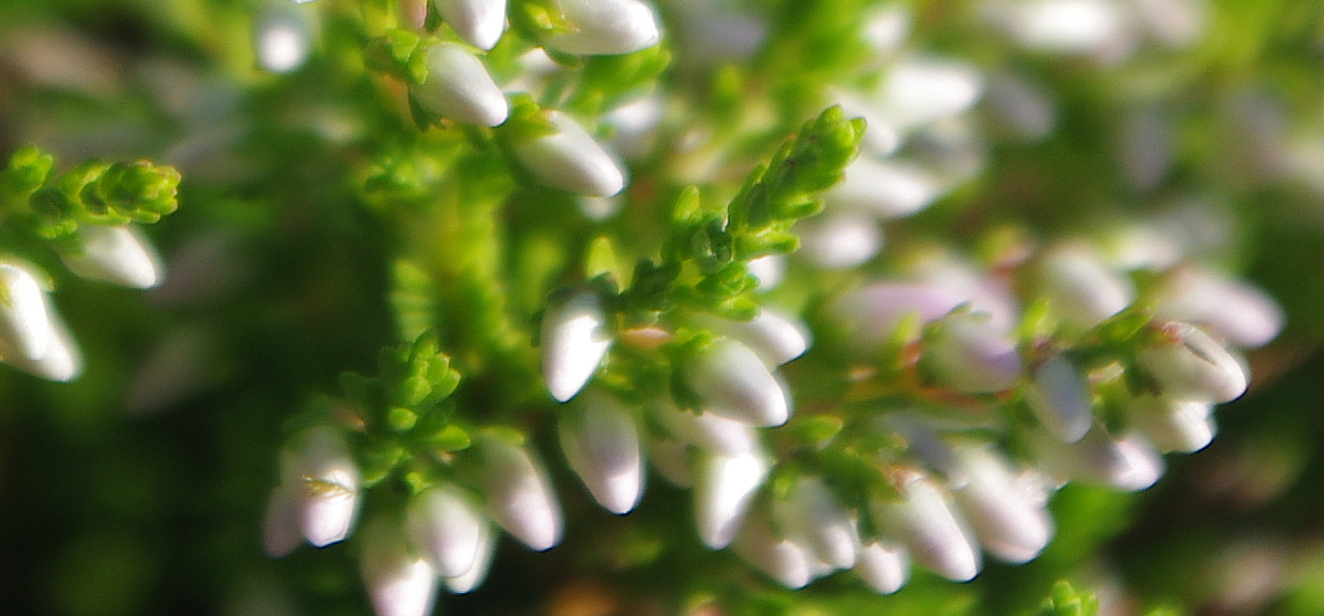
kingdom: Plantae
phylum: Tracheophyta
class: Magnoliopsida
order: Ericales
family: Ericaceae
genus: Calluna
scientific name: Calluna vulgaris
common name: Heather
